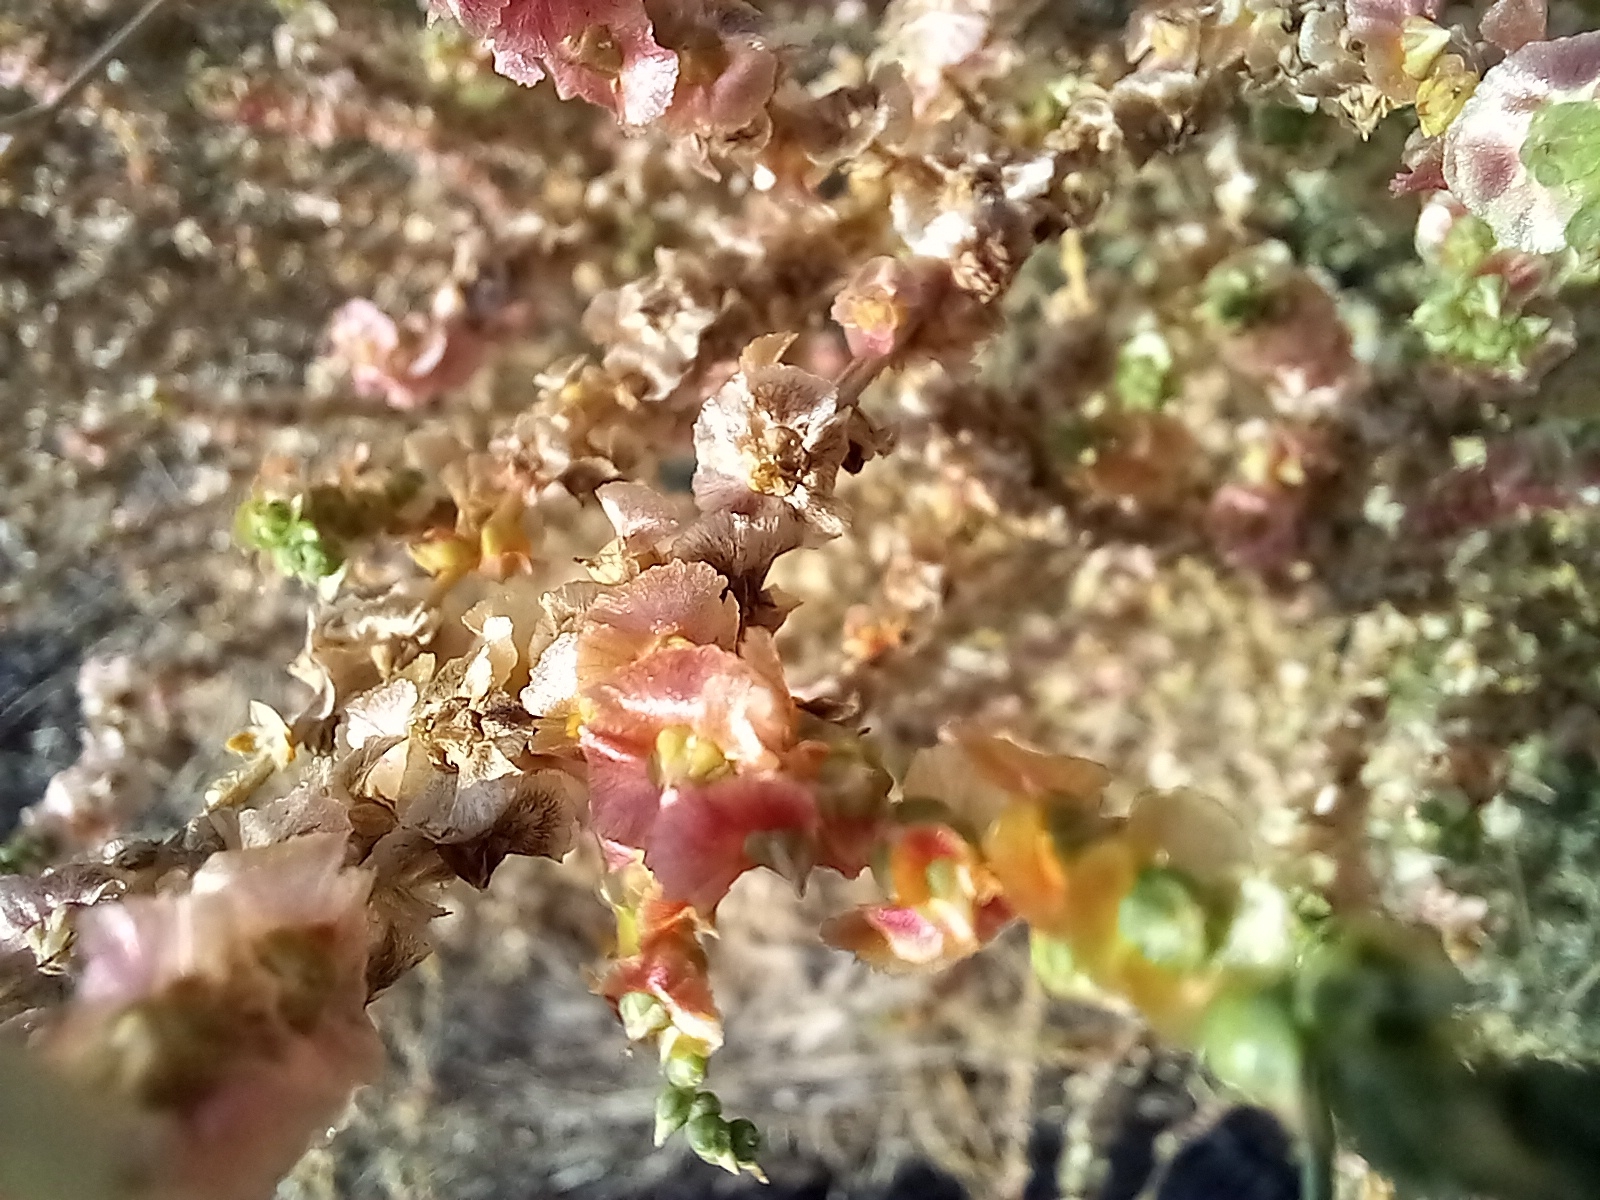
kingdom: Plantae
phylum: Tracheophyta
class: Magnoliopsida
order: Caryophyllales
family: Amaranthaceae
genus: Nitrosalsola
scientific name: Nitrosalsola vermiculata
